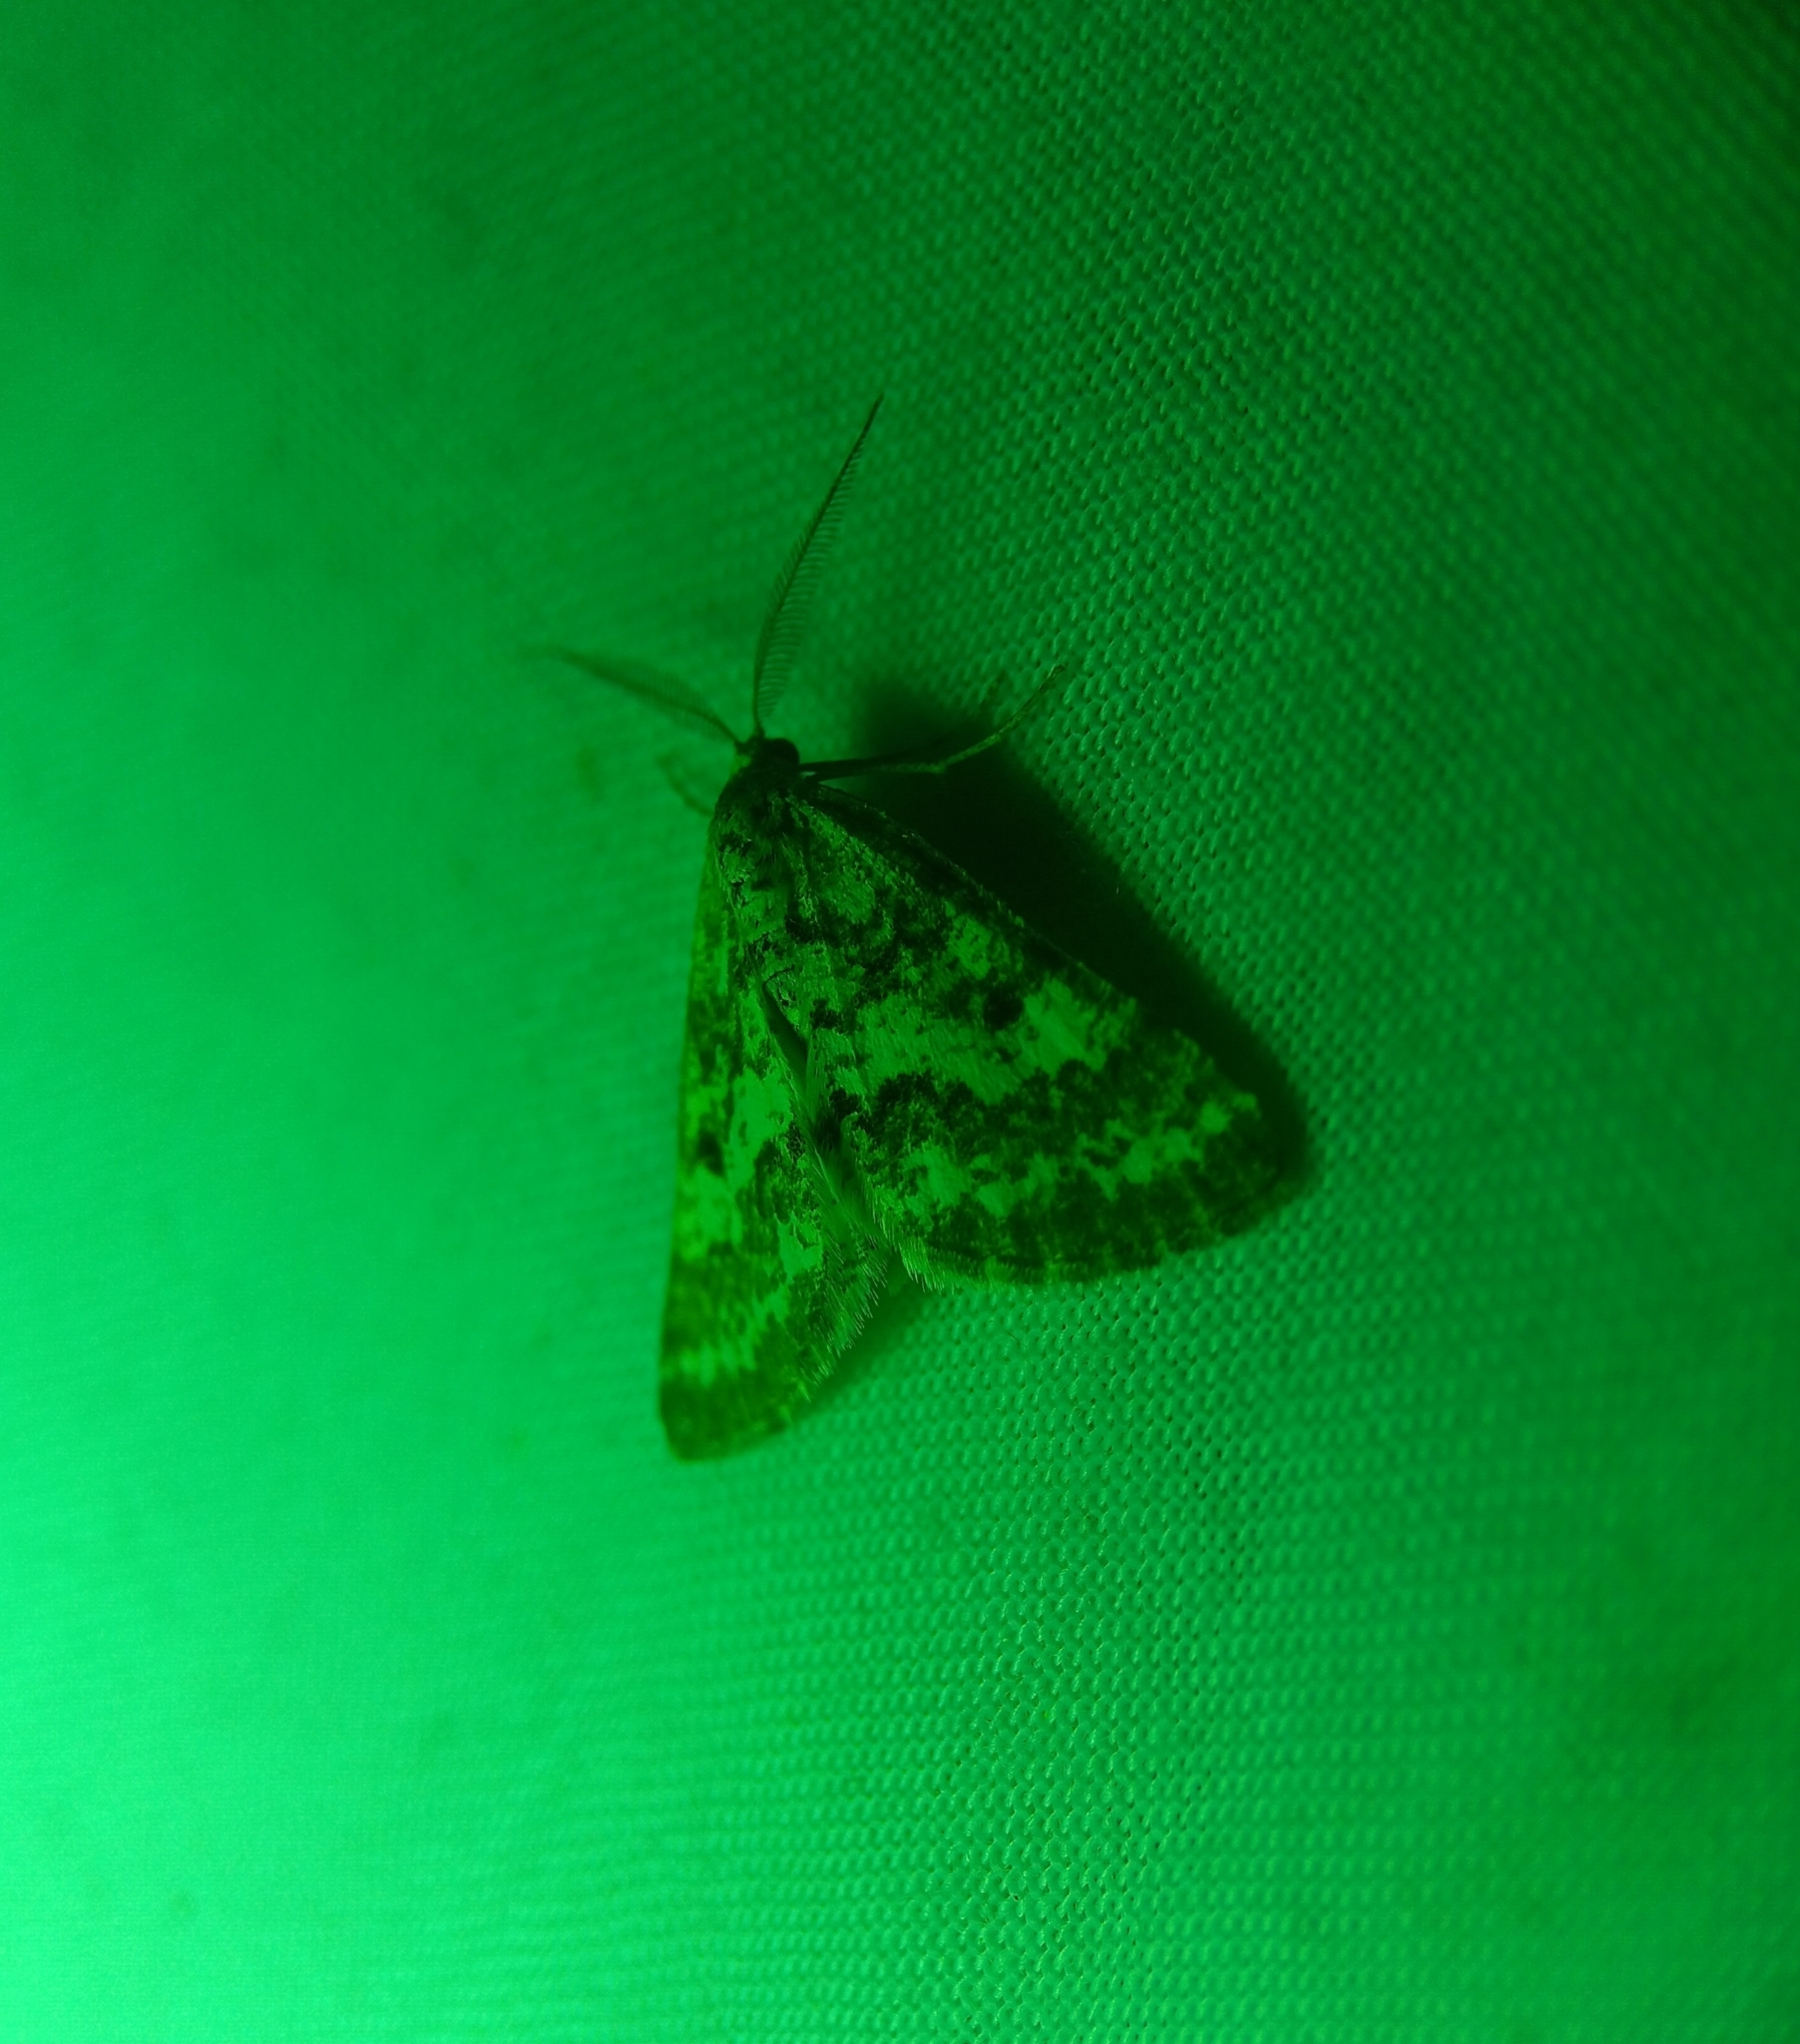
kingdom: Animalia
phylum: Arthropoda
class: Insecta
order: Lepidoptera
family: Geometridae
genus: Eufidonia
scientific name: Eufidonia notataria
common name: Powder moth
